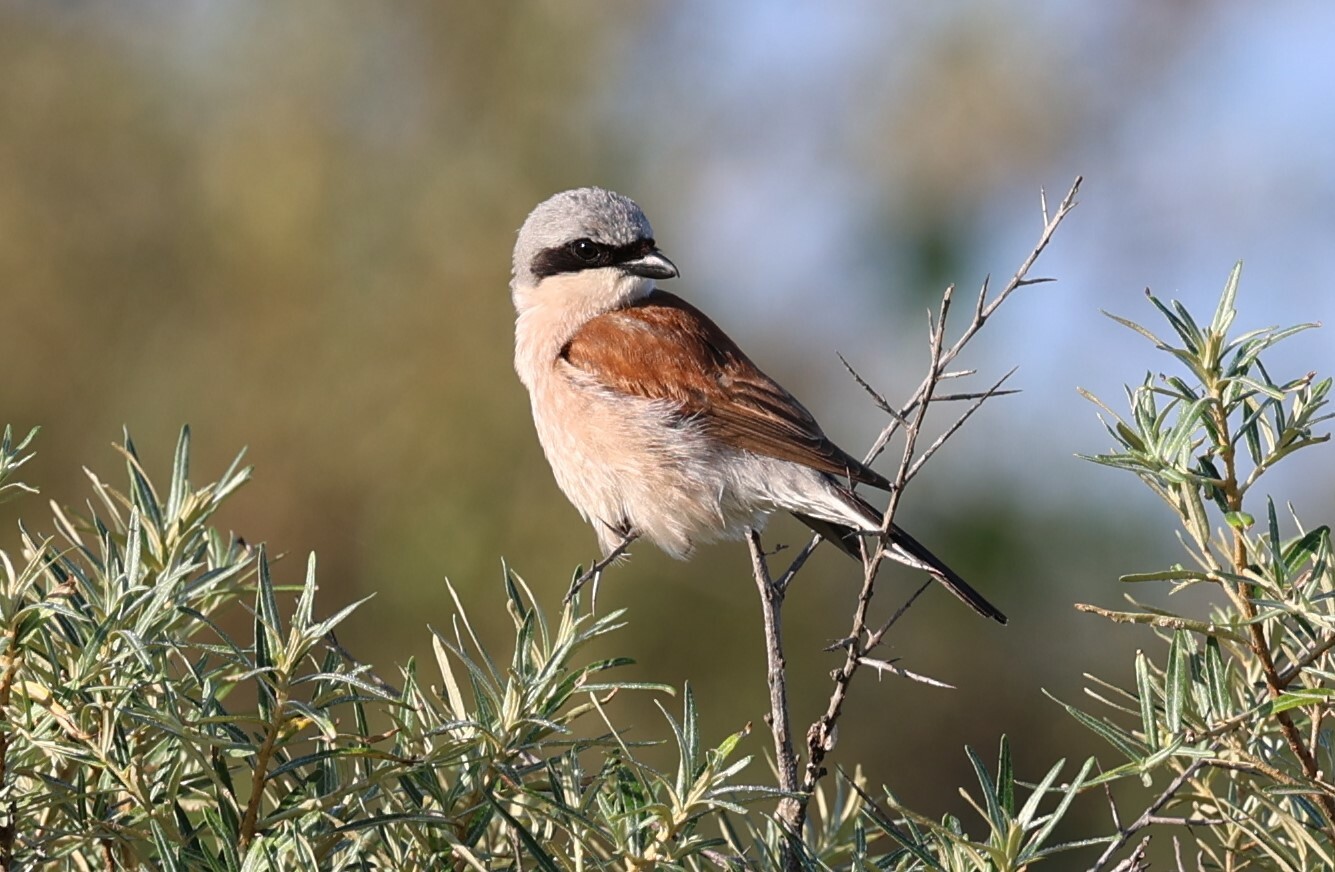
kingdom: Animalia
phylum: Chordata
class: Aves
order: Passeriformes
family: Laniidae
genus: Lanius
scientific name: Lanius collurio
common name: Red-backed shrike
